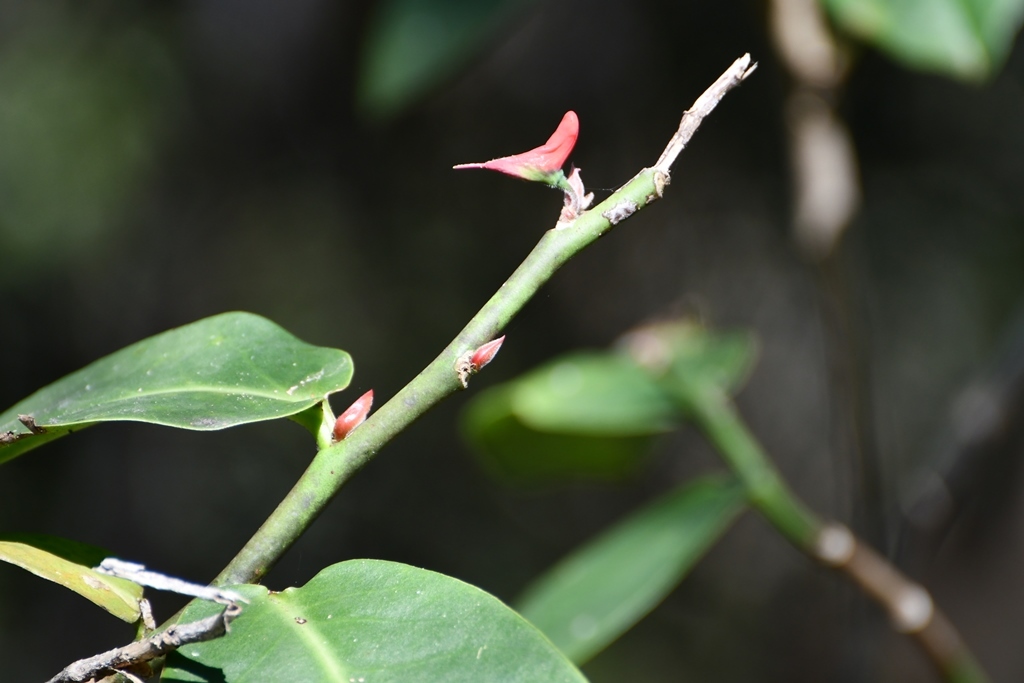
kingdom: Plantae
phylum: Tracheophyta
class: Magnoliopsida
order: Malpighiales
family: Euphorbiaceae
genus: Euphorbia
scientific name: Euphorbia calcarata
